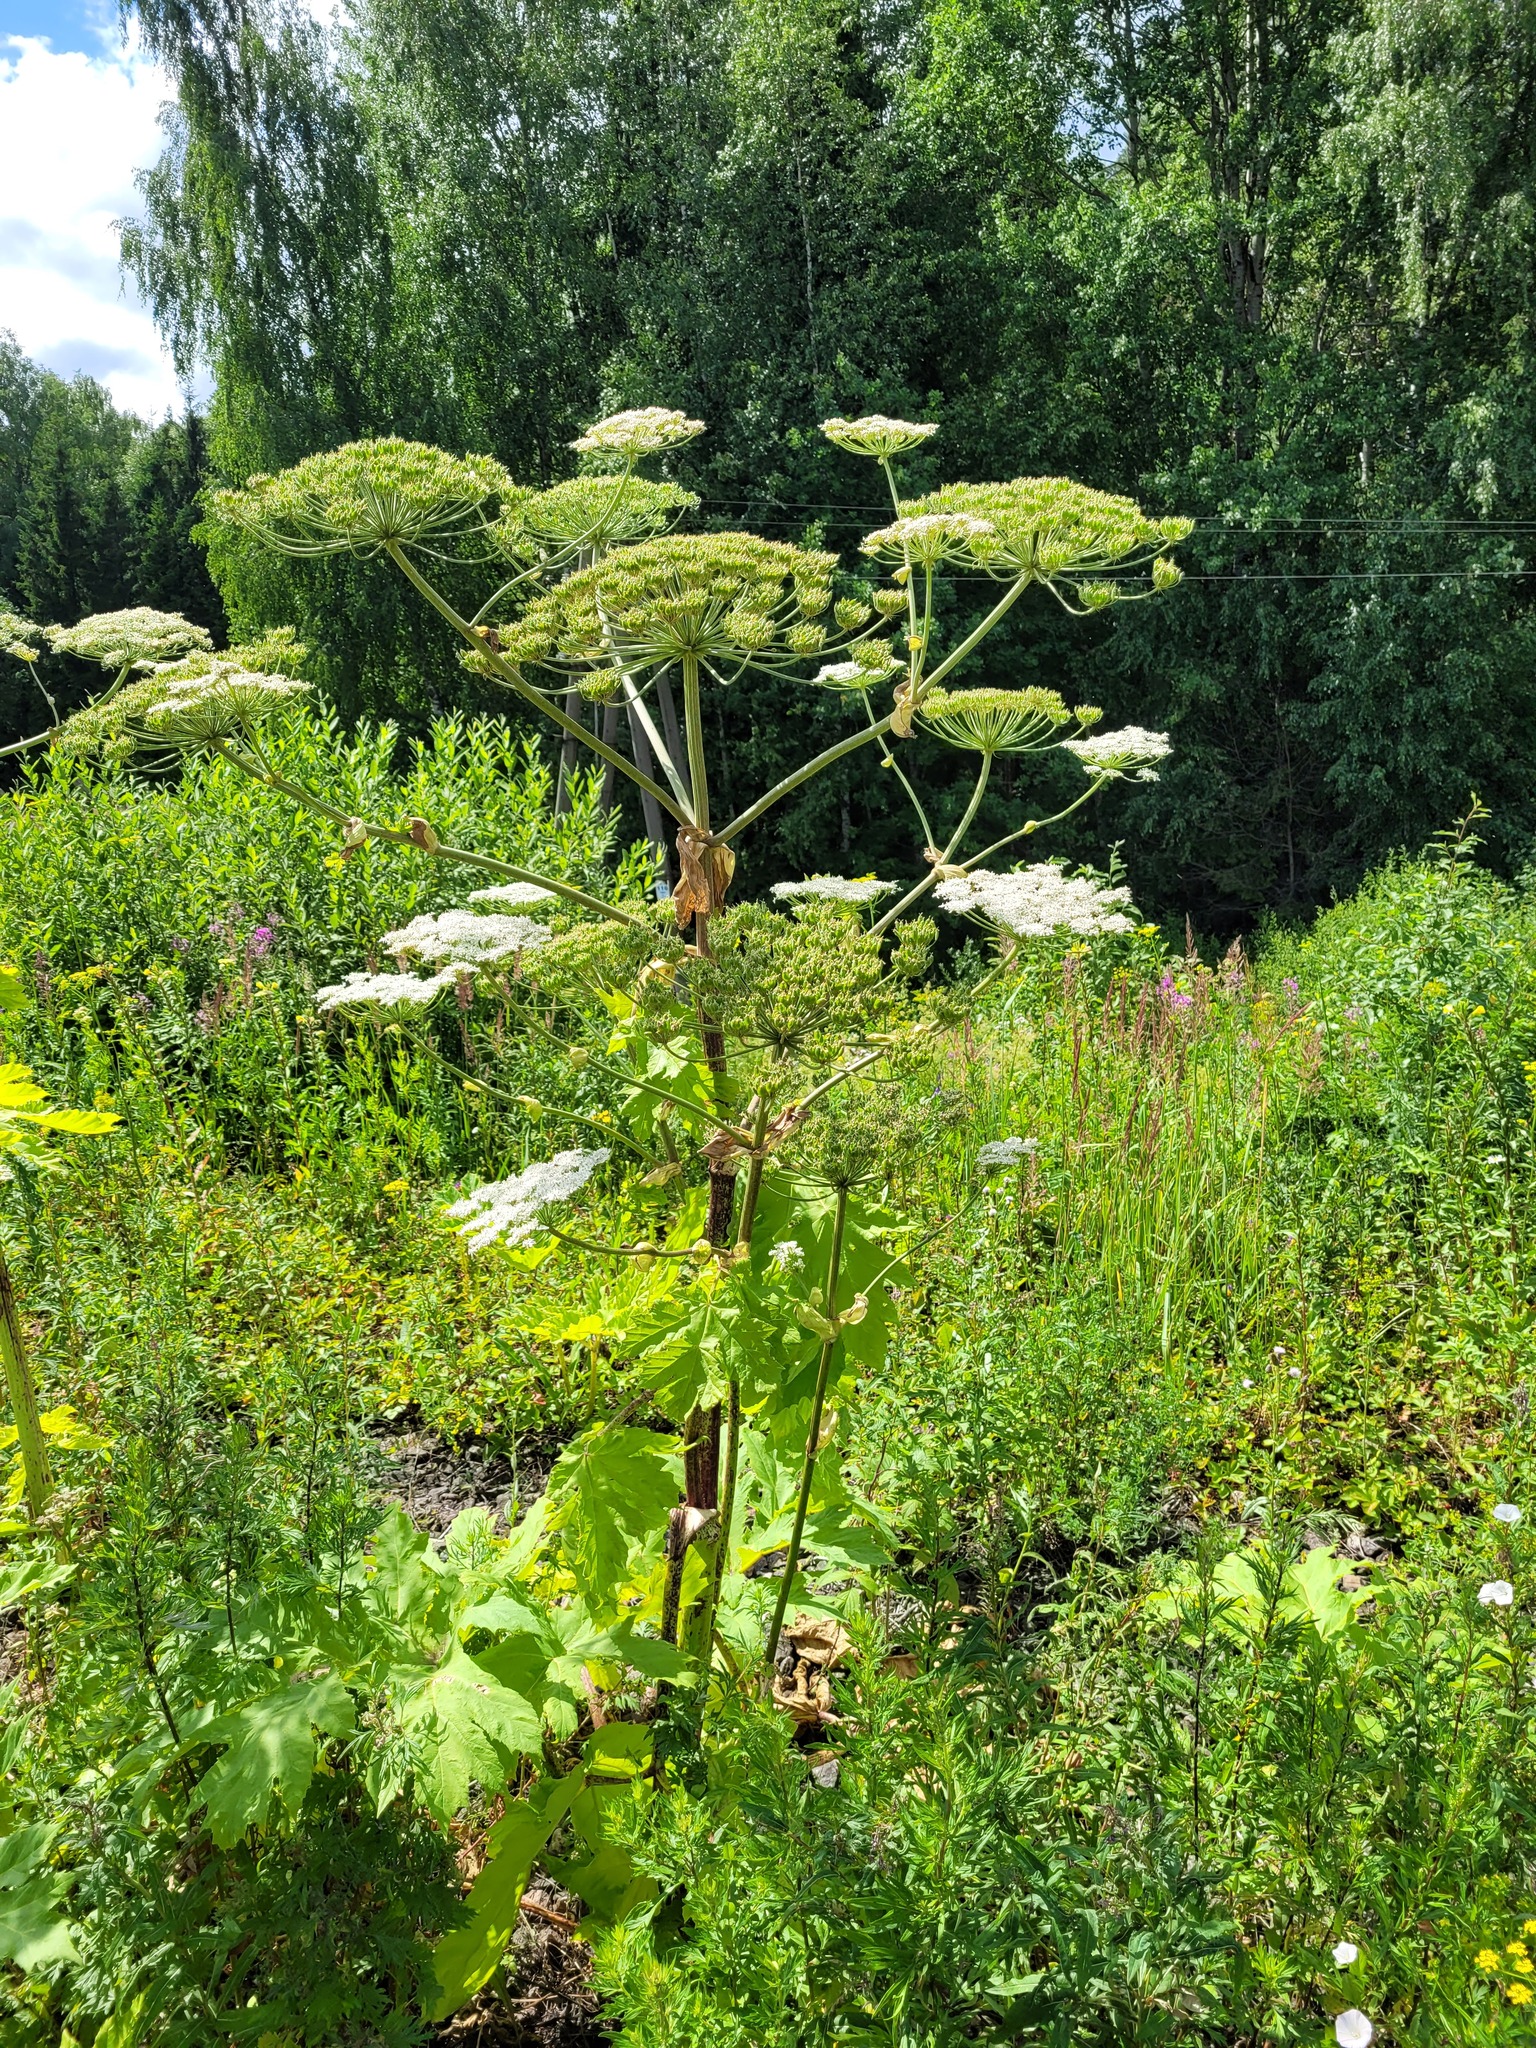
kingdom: Plantae
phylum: Tracheophyta
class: Magnoliopsida
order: Apiales
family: Apiaceae
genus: Heracleum
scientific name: Heracleum sosnowskyi
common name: Sosnowsky's hogweed
